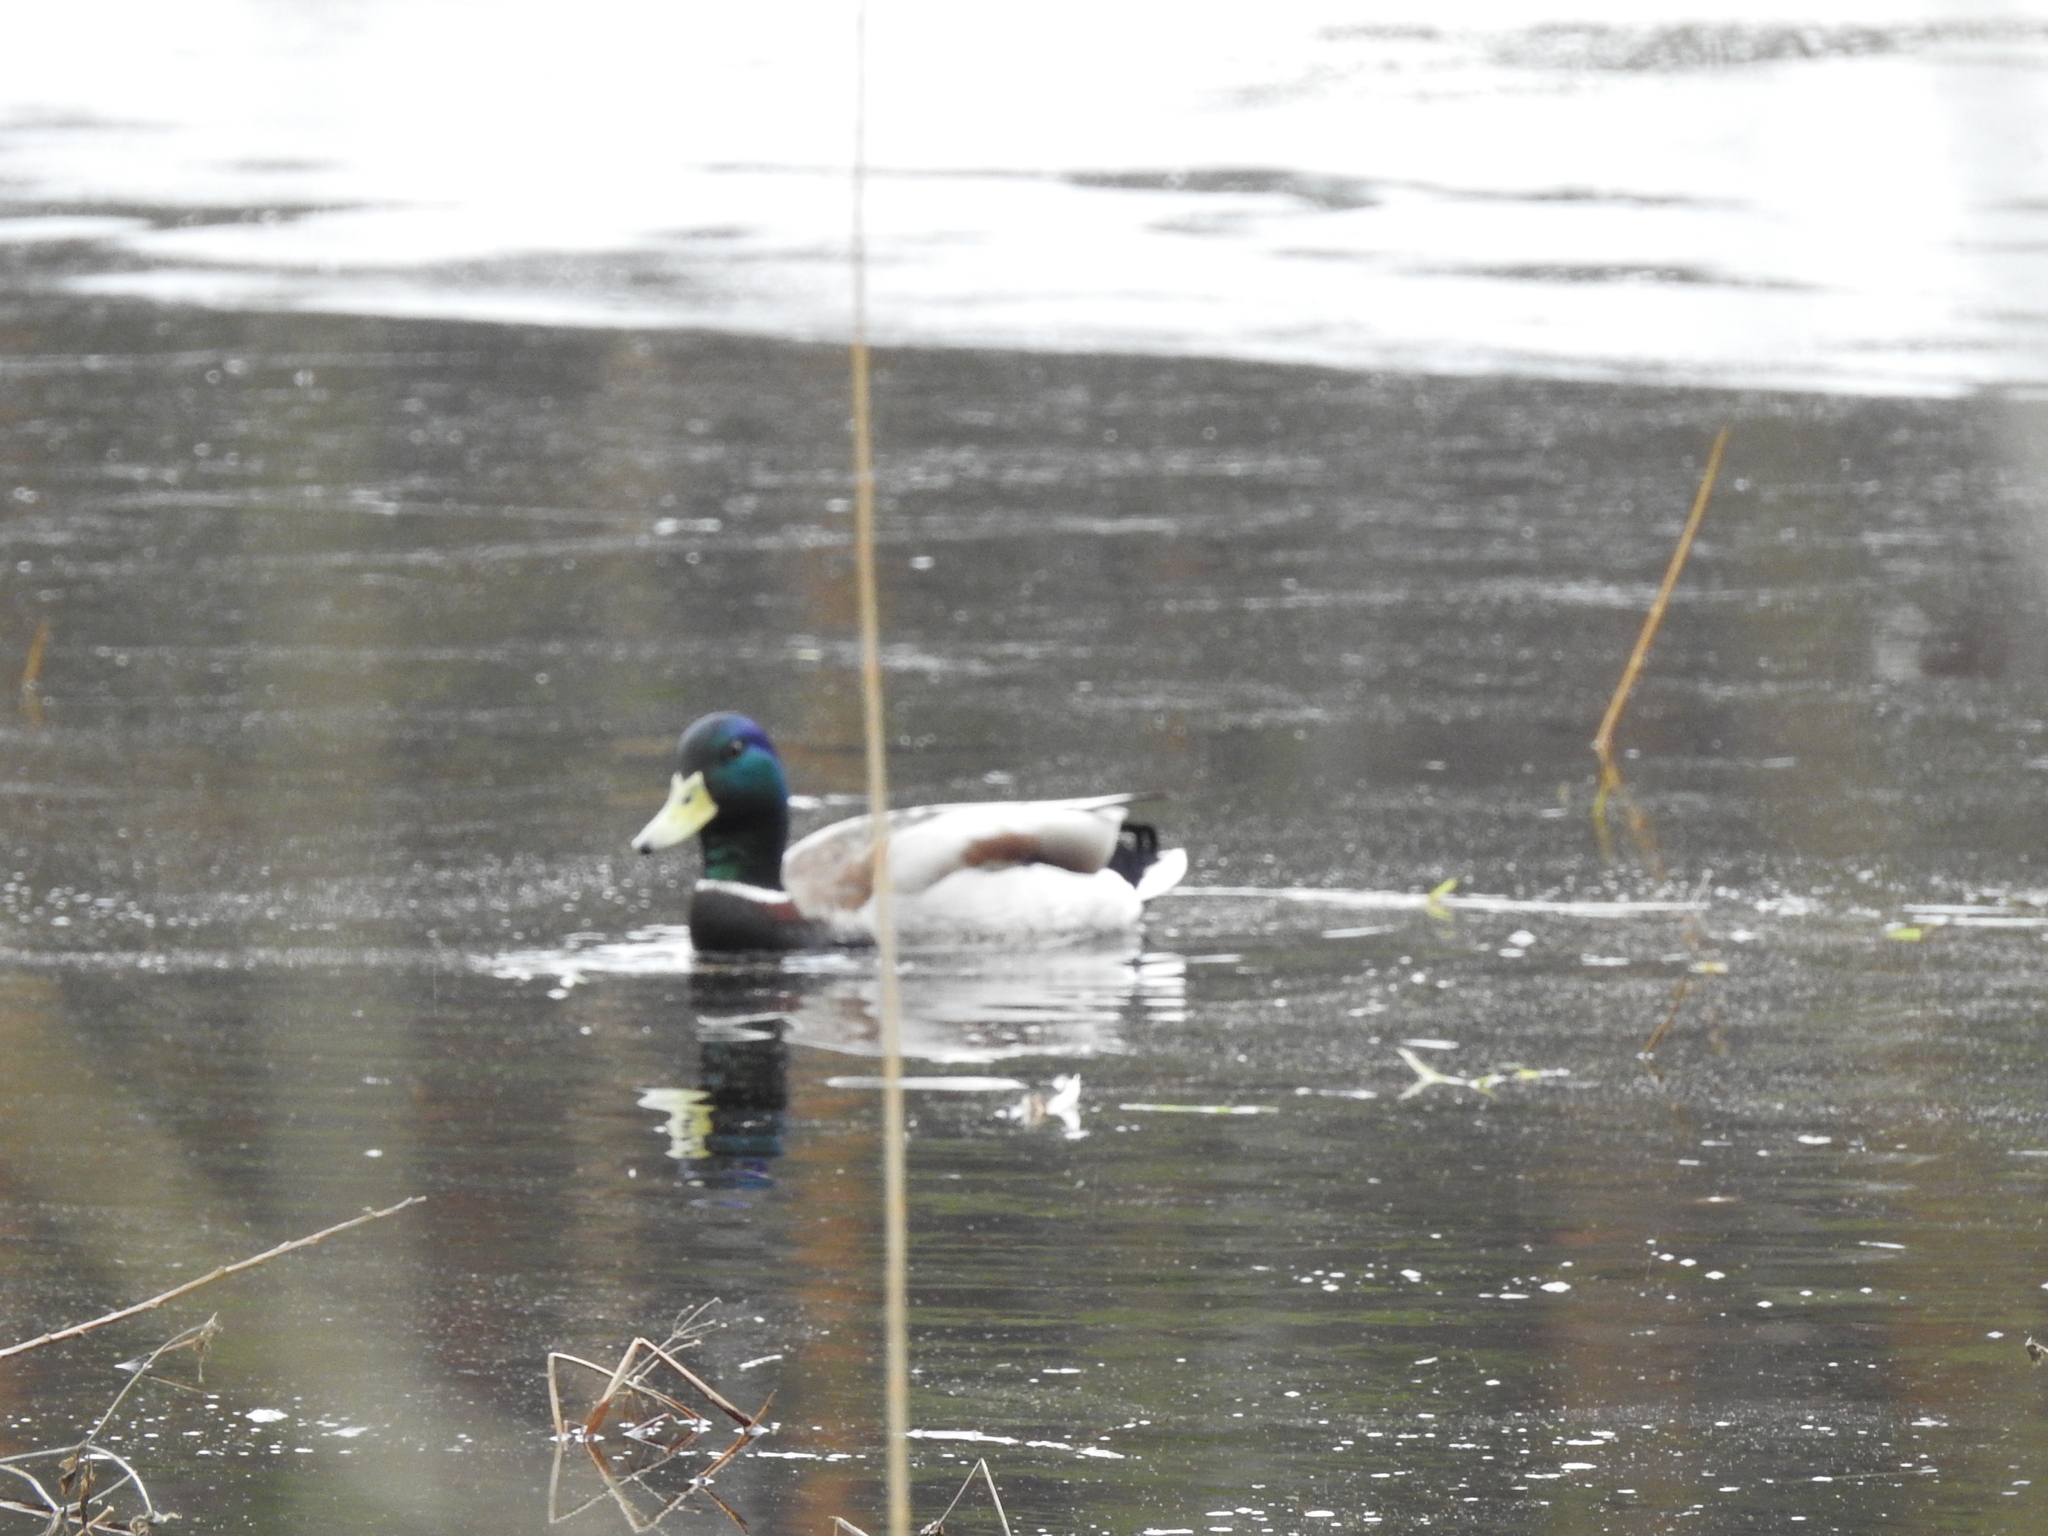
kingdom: Animalia
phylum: Chordata
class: Aves
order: Anseriformes
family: Anatidae
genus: Anas
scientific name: Anas platyrhynchos
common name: Mallard
